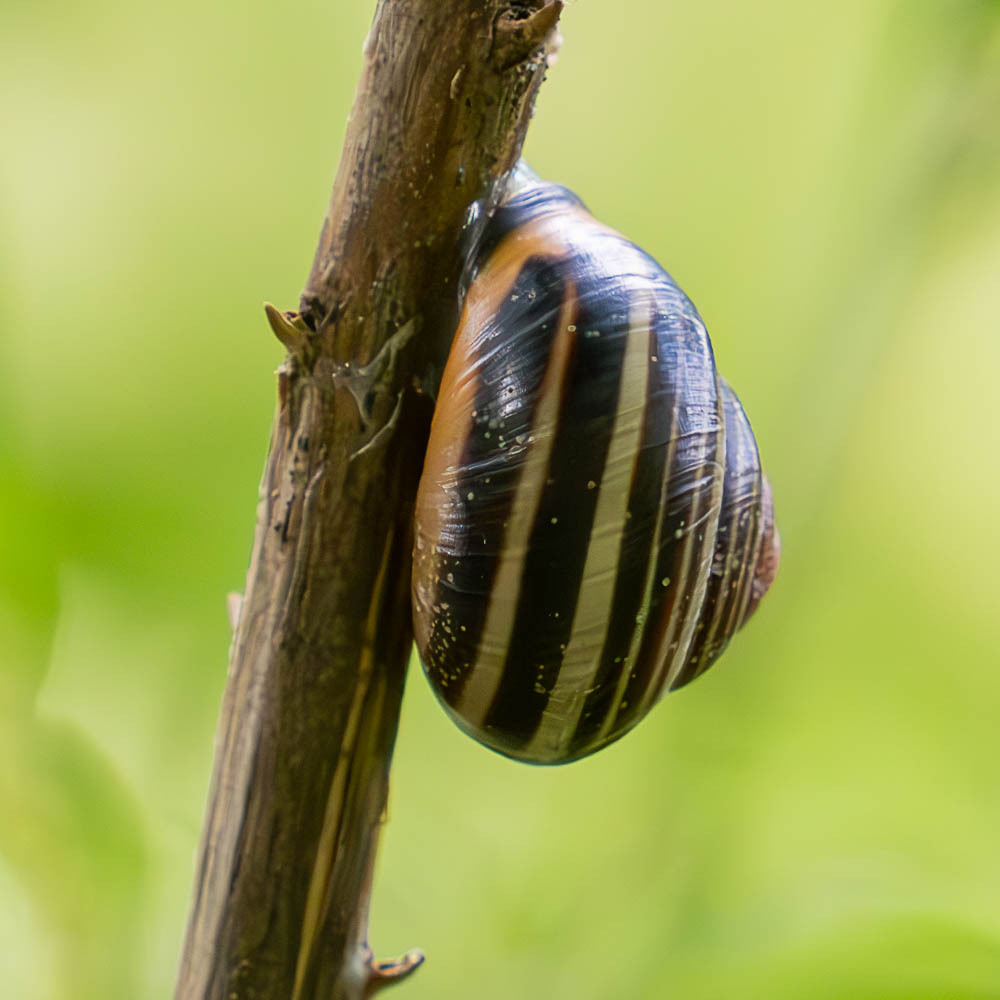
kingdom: Animalia
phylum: Mollusca
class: Gastropoda
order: Stylommatophora
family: Helicidae
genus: Cepaea
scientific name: Cepaea nemoralis
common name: Grovesnail
